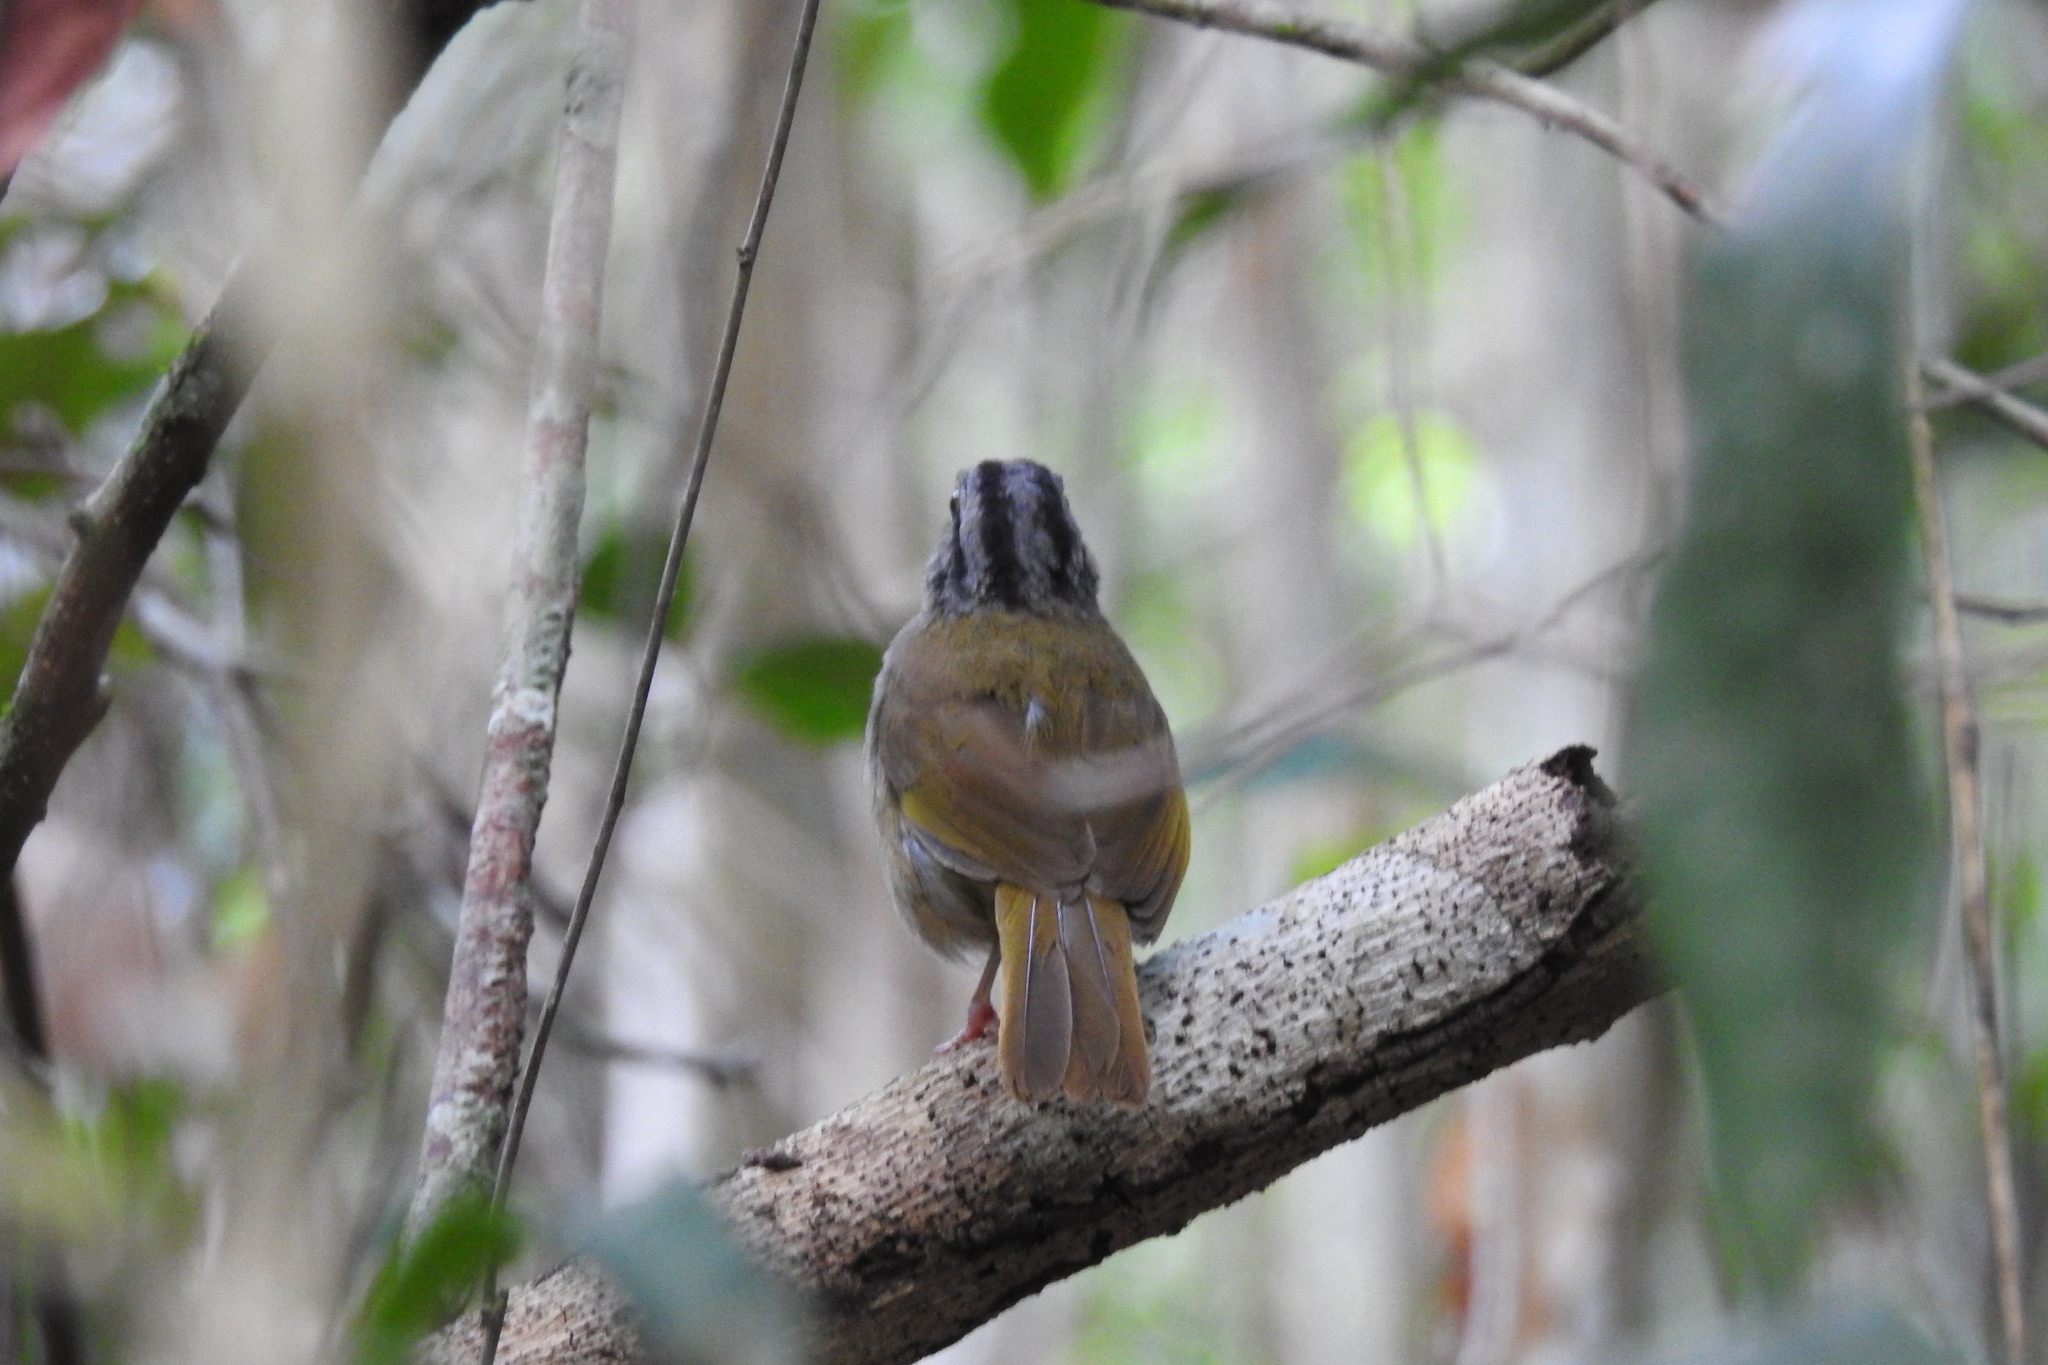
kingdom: Animalia
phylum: Chordata
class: Aves
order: Passeriformes
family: Passerellidae
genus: Arremonops
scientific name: Arremonops chloronotus
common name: Green-backed sparrow
